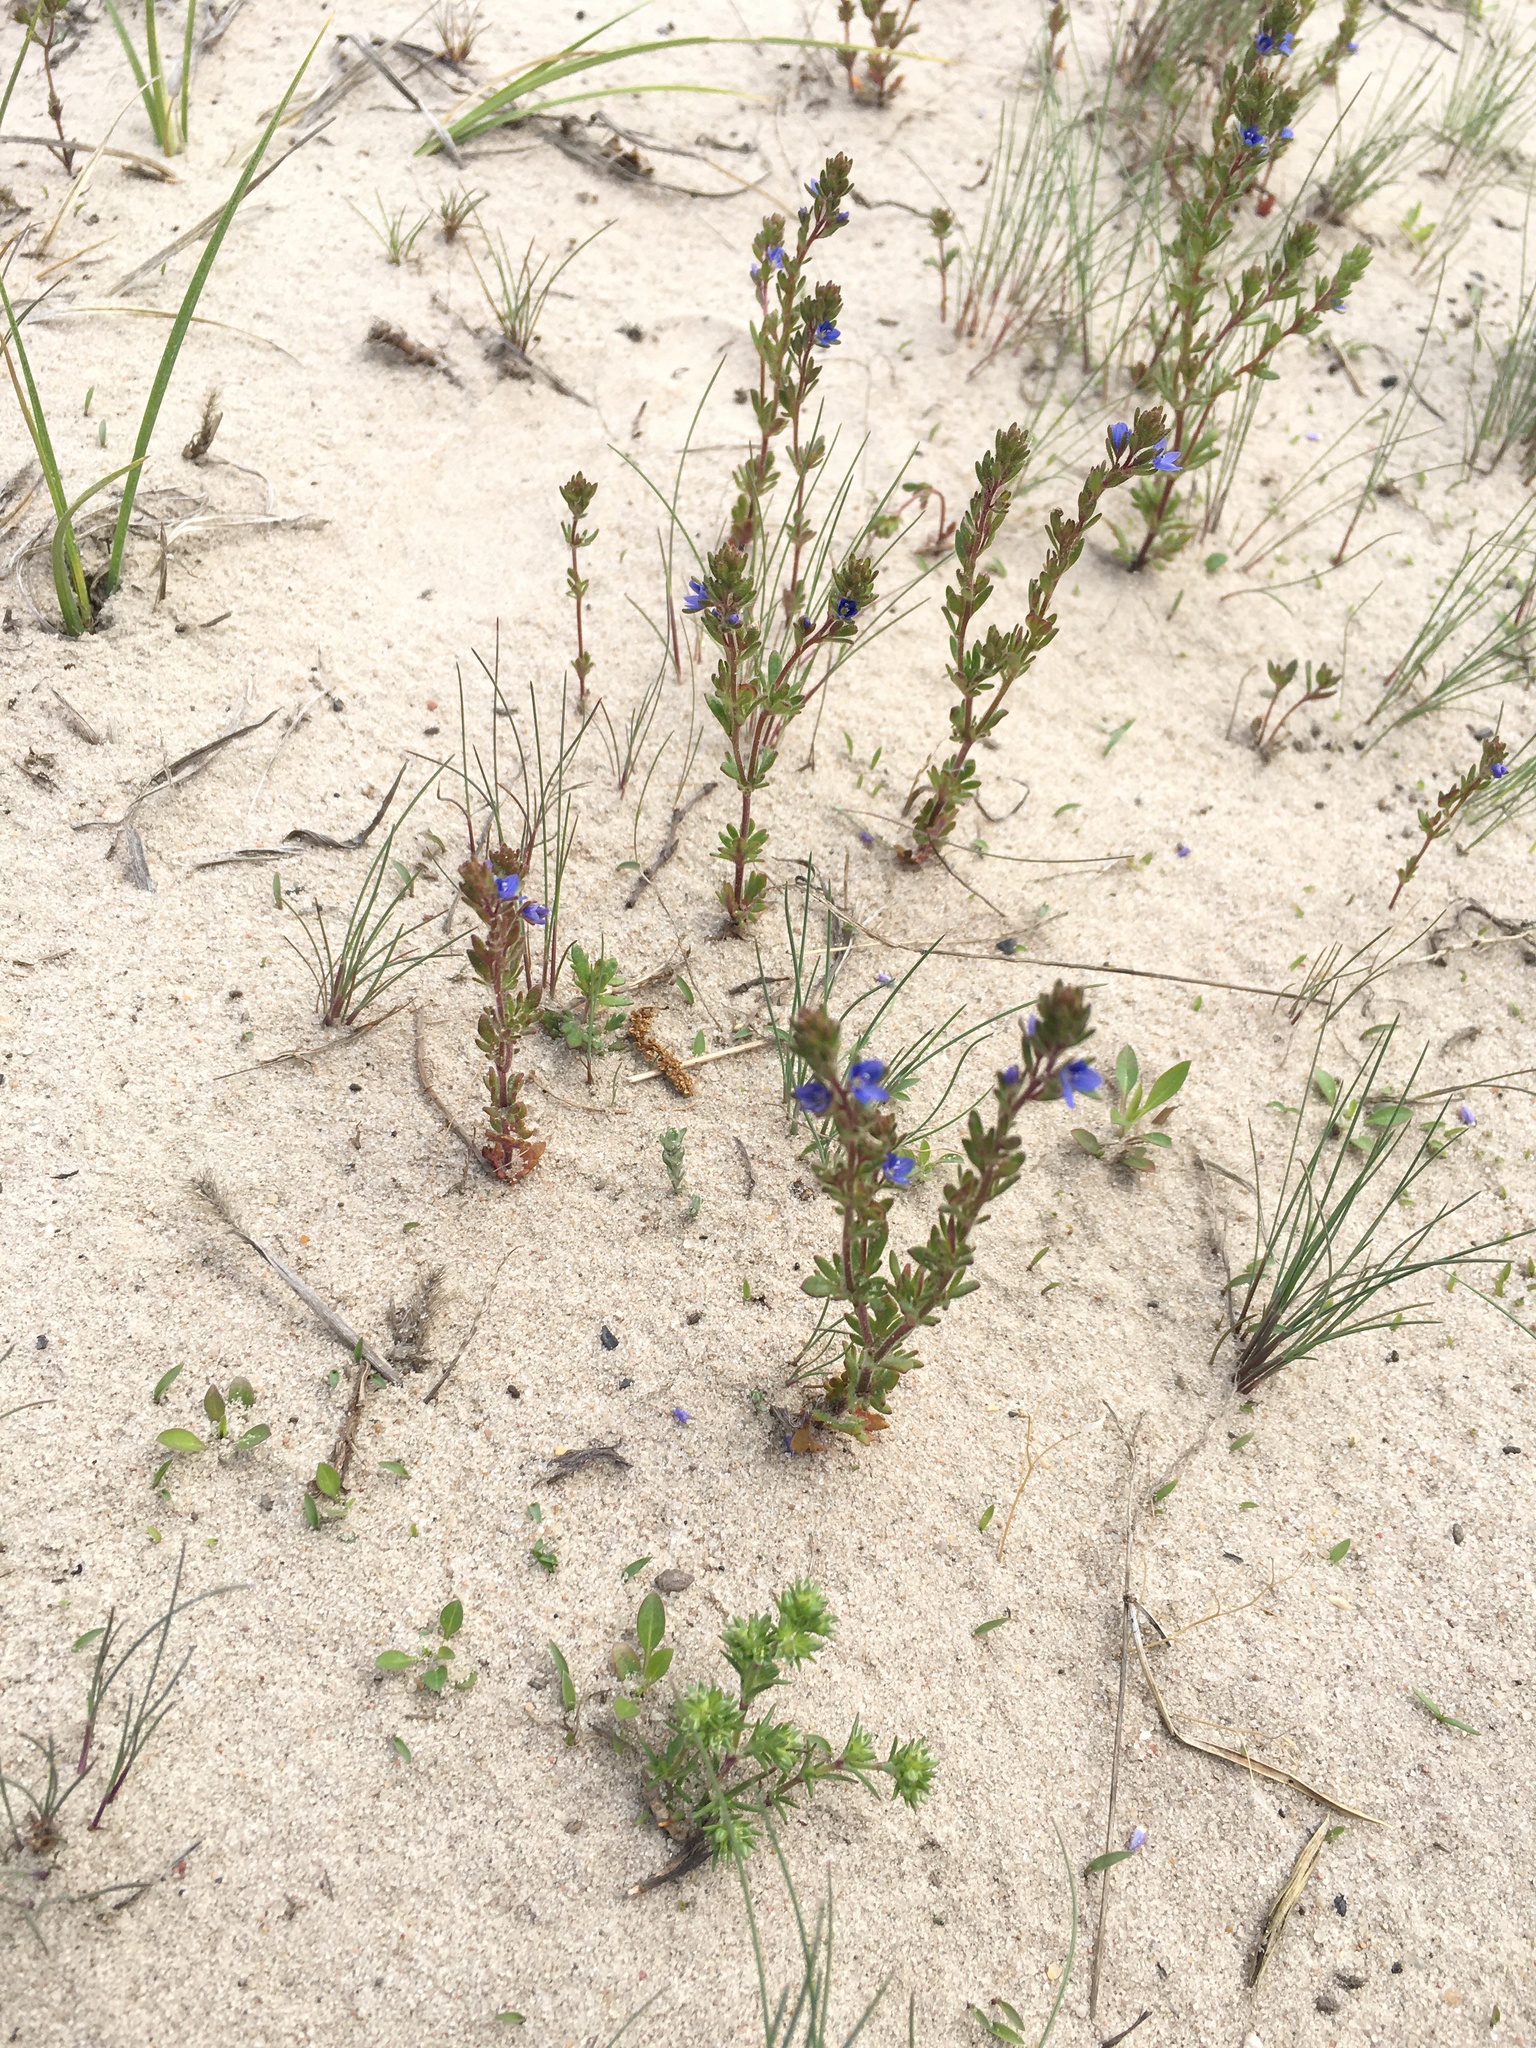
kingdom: Plantae
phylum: Tracheophyta
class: Magnoliopsida
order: Lamiales
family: Plantaginaceae
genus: Veronica
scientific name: Veronica arvensis
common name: Corn speedwell
